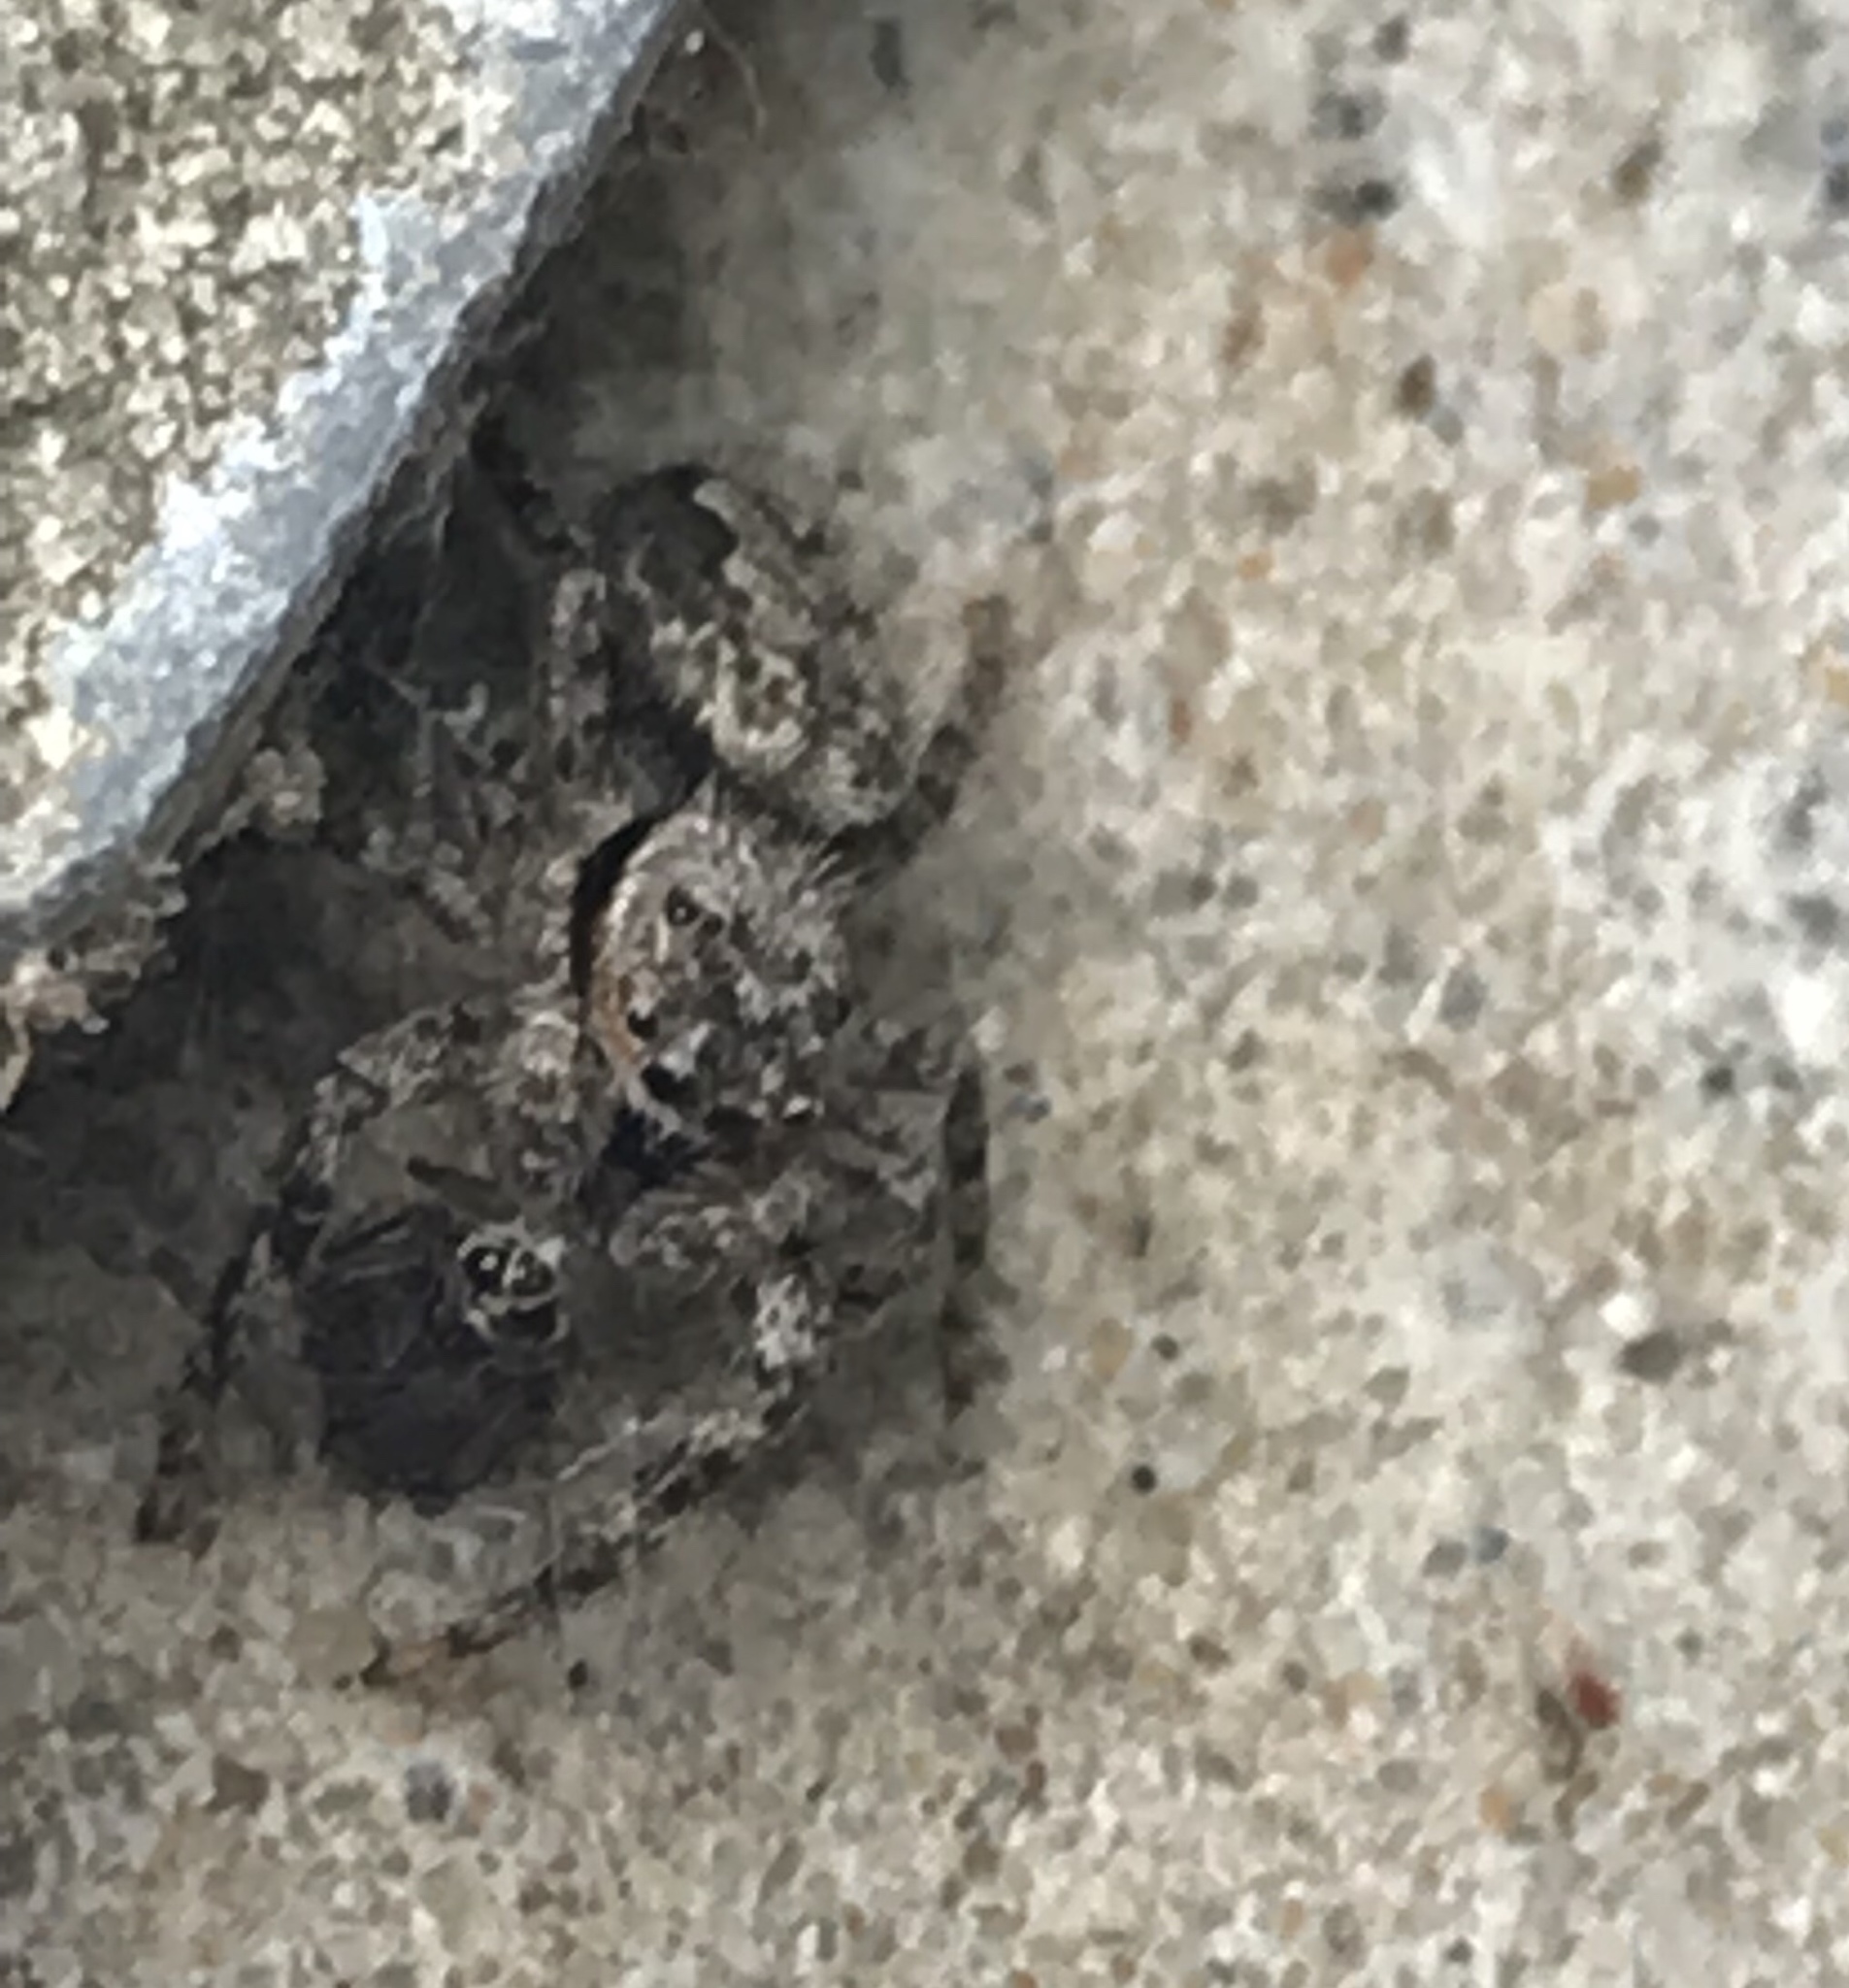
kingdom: Animalia
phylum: Arthropoda
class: Arachnida
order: Araneae
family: Salticidae
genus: Platycryptus
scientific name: Platycryptus undatus
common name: Tan jumping spider
